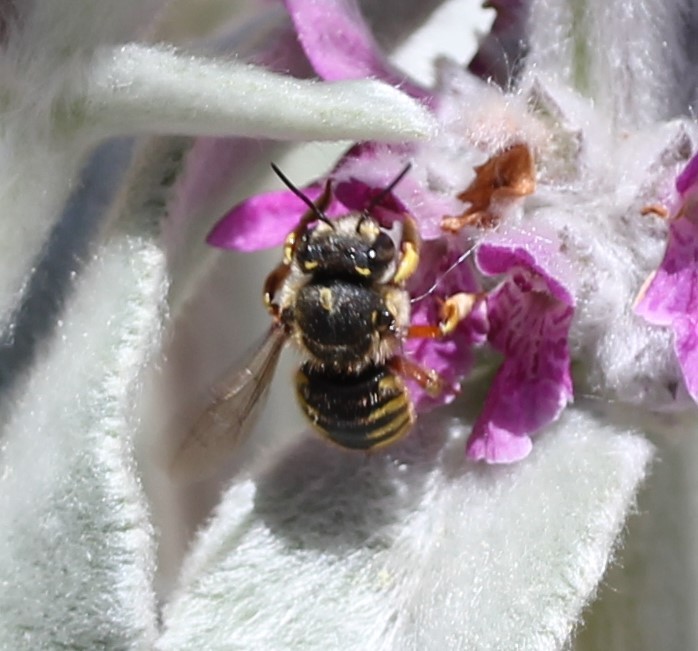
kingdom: Animalia
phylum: Arthropoda
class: Insecta
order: Hymenoptera
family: Megachilidae
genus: Anthidium
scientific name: Anthidium manicatum
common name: Wool carder bee
